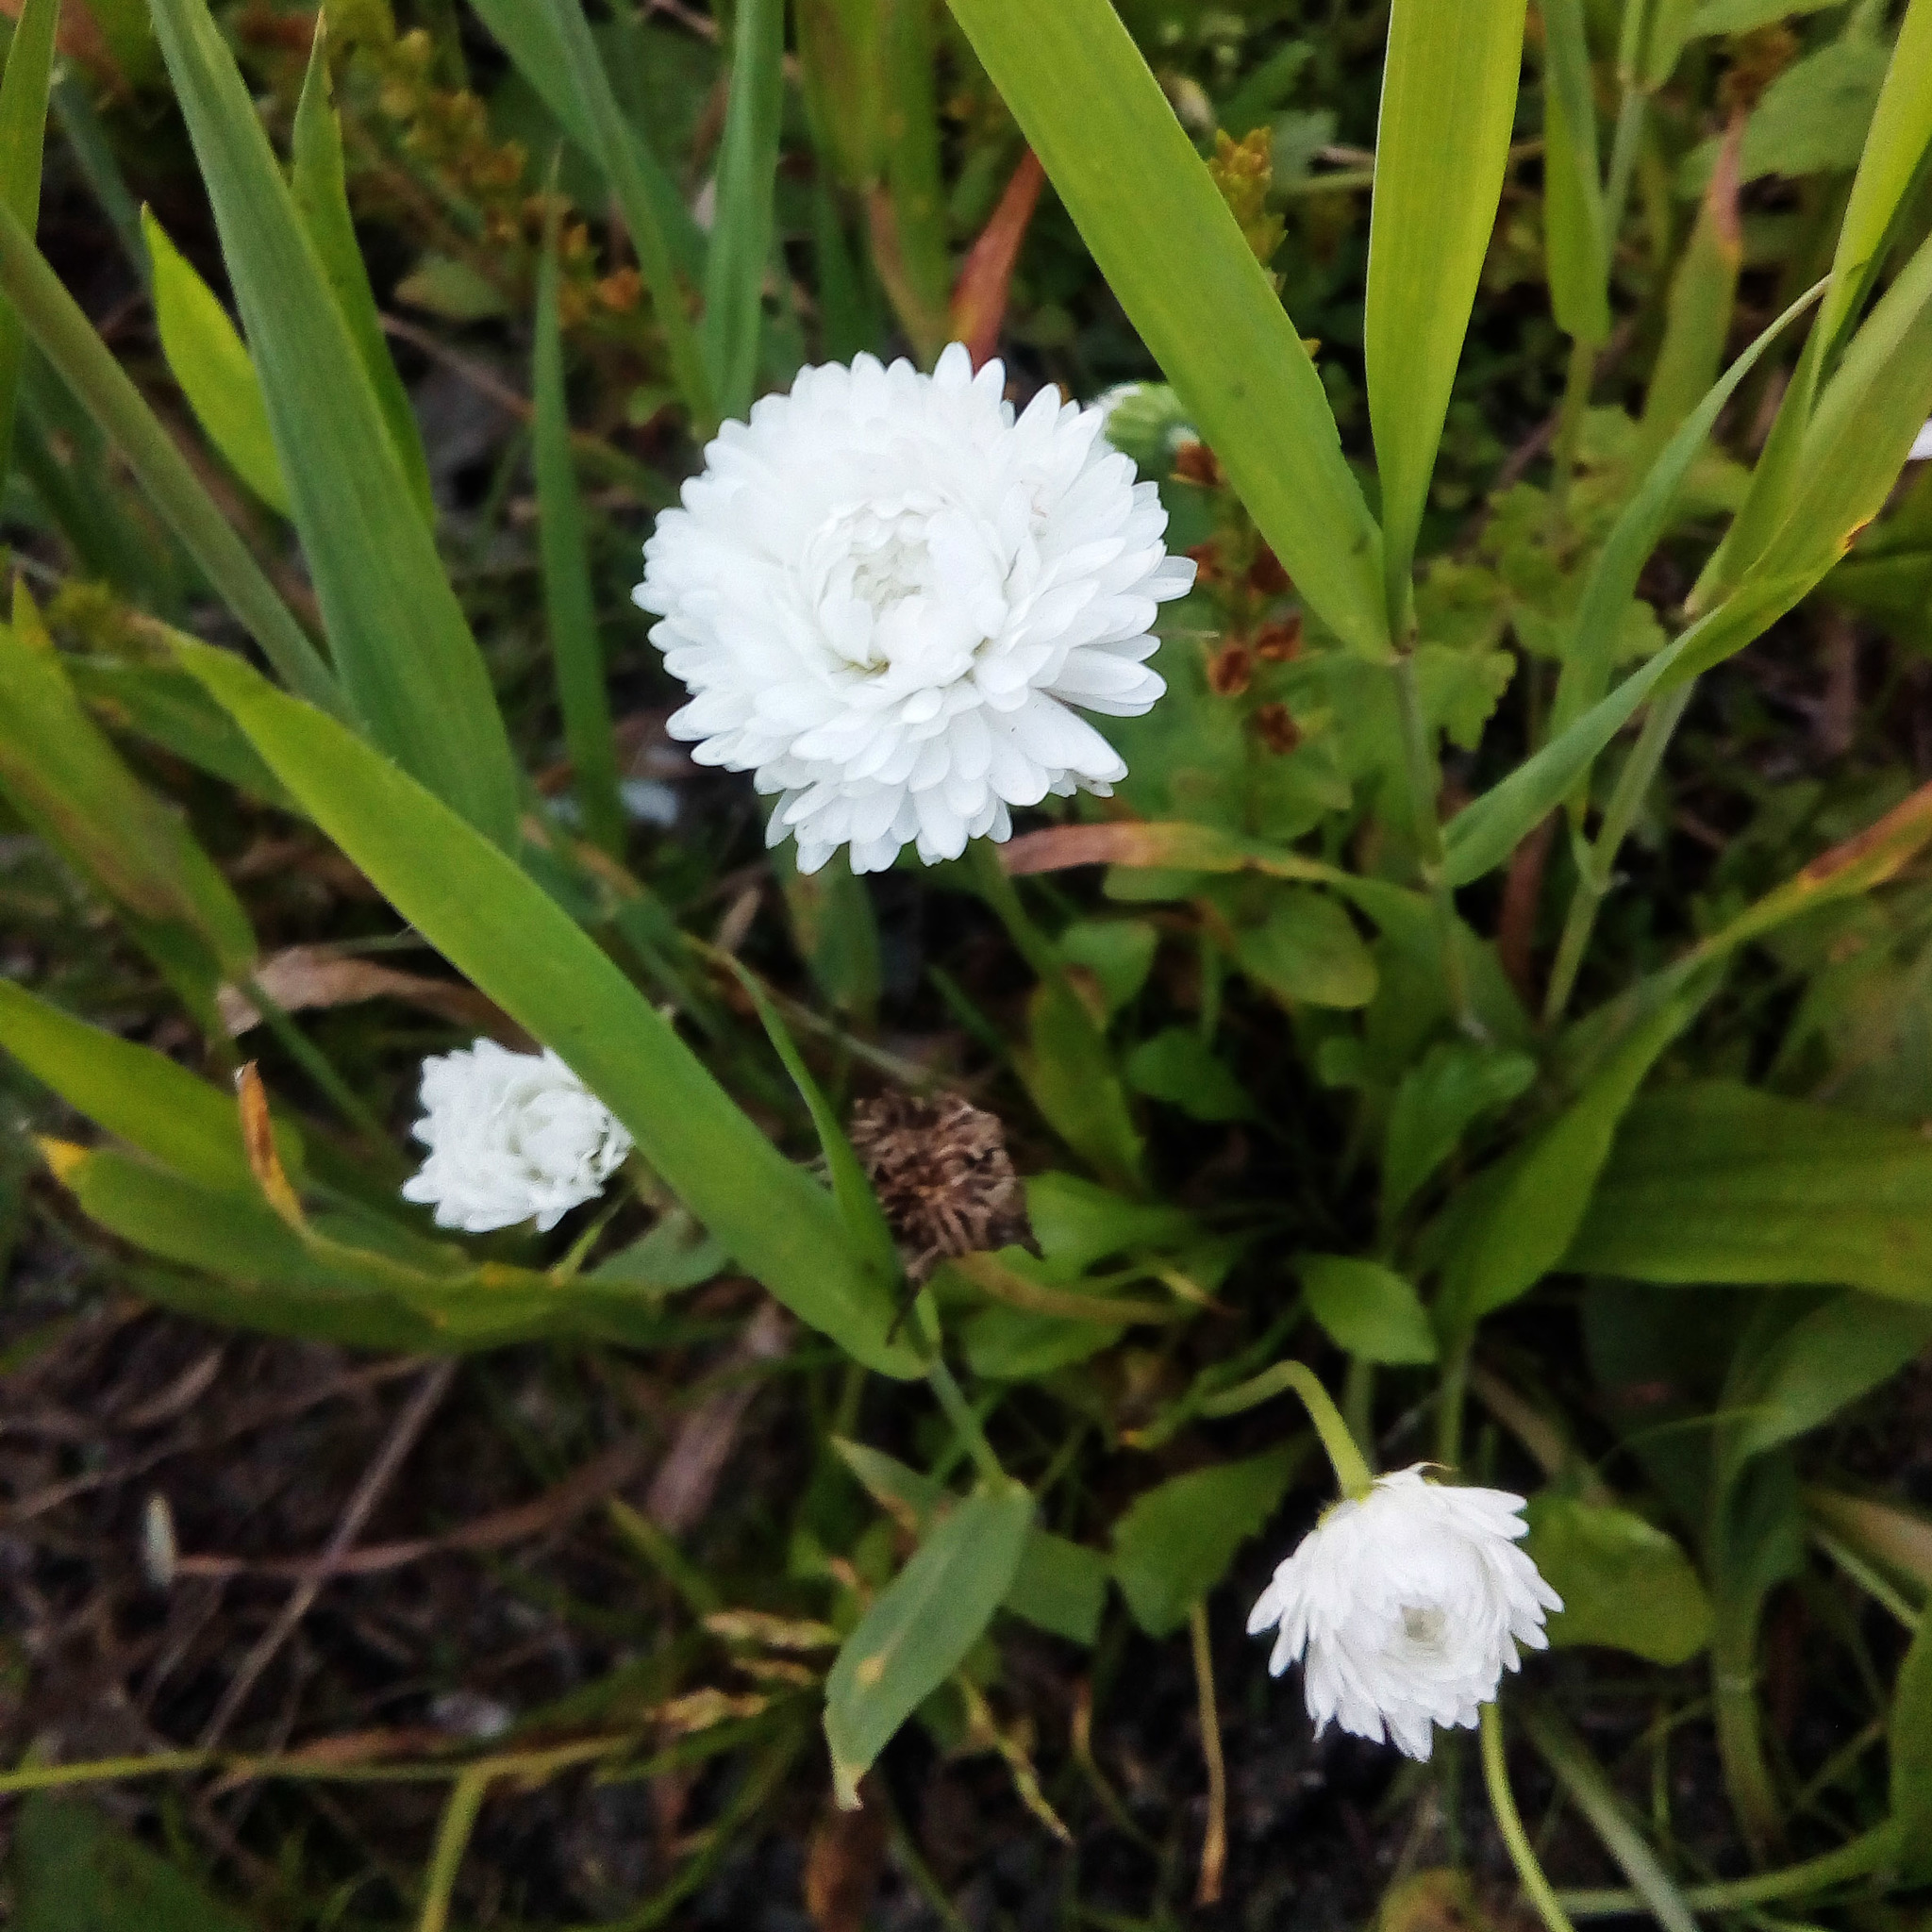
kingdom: Plantae
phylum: Tracheophyta
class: Magnoliopsida
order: Asterales
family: Asteraceae
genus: Bellis
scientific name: Bellis perennis
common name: Lawndaisy
